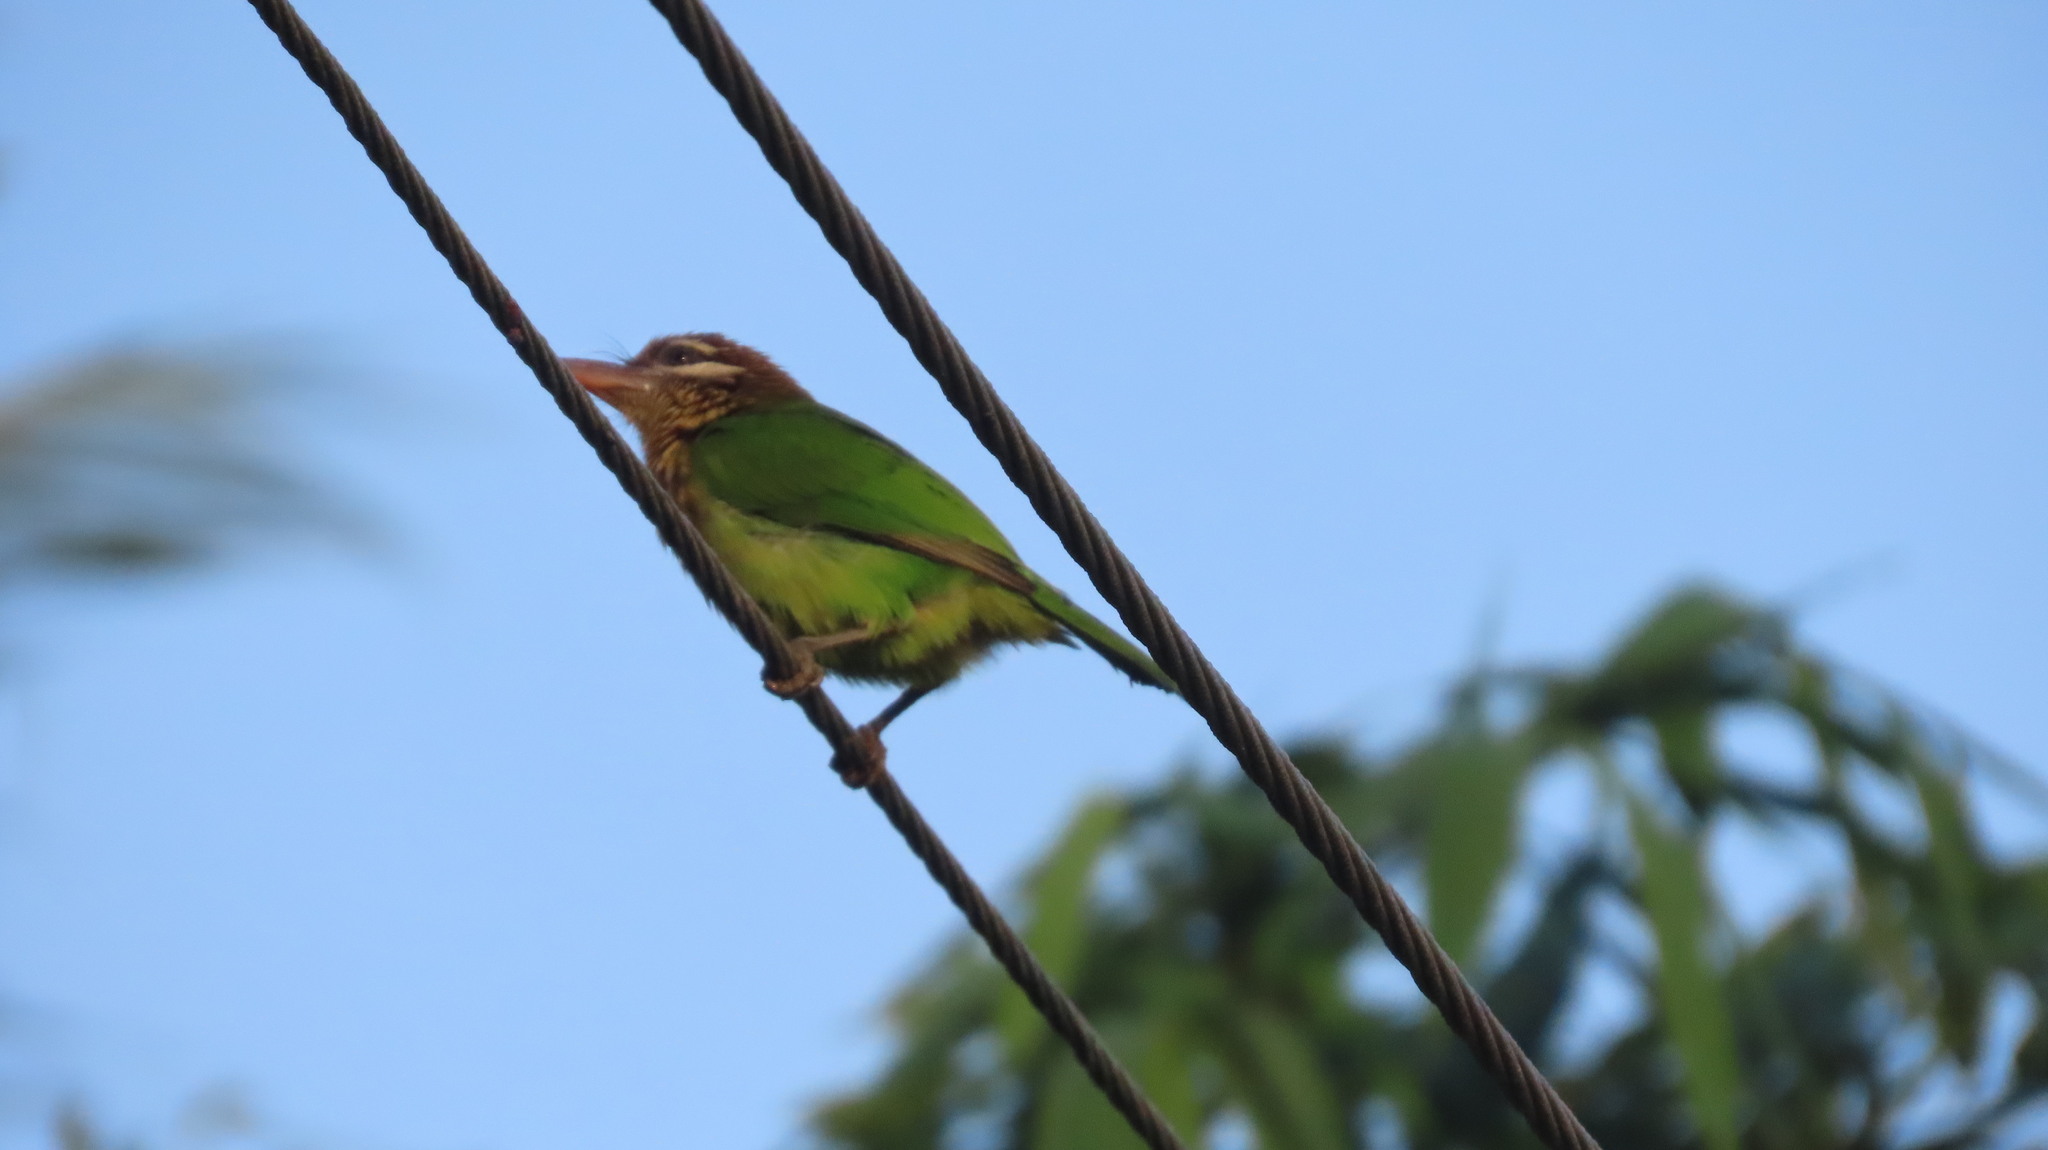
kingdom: Animalia
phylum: Chordata
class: Aves
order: Piciformes
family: Megalaimidae
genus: Psilopogon
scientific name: Psilopogon viridis
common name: White-cheeked barbet
